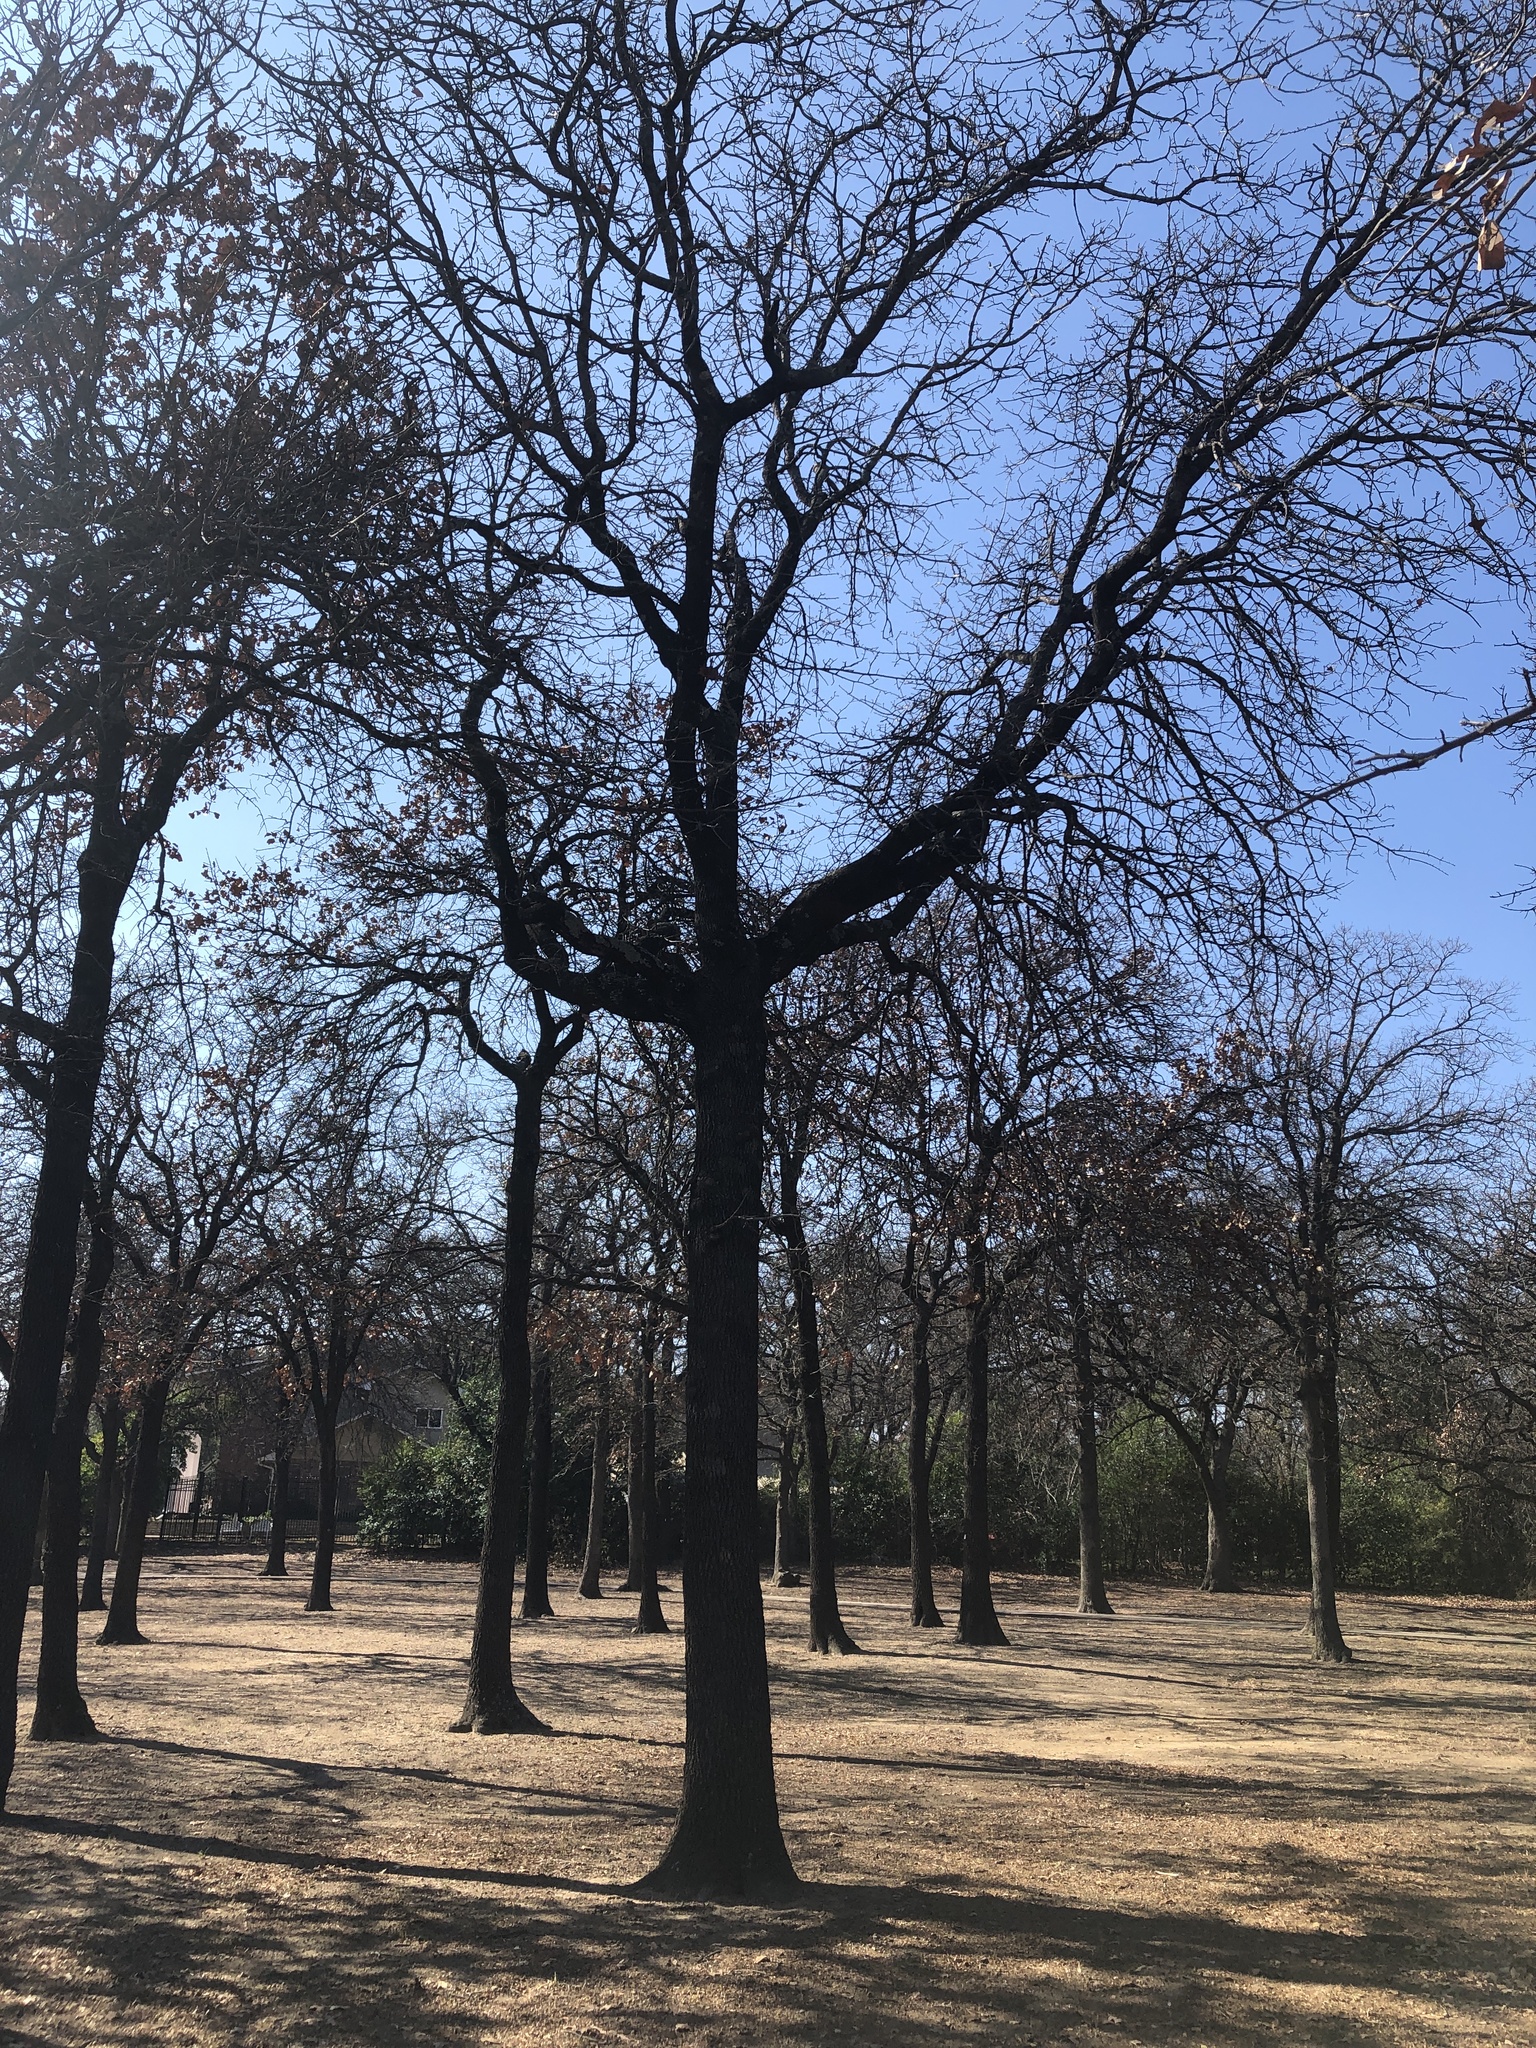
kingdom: Plantae
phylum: Tracheophyta
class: Magnoliopsida
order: Fagales
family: Fagaceae
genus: Quercus
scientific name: Quercus marilandica
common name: Blackjack oak
